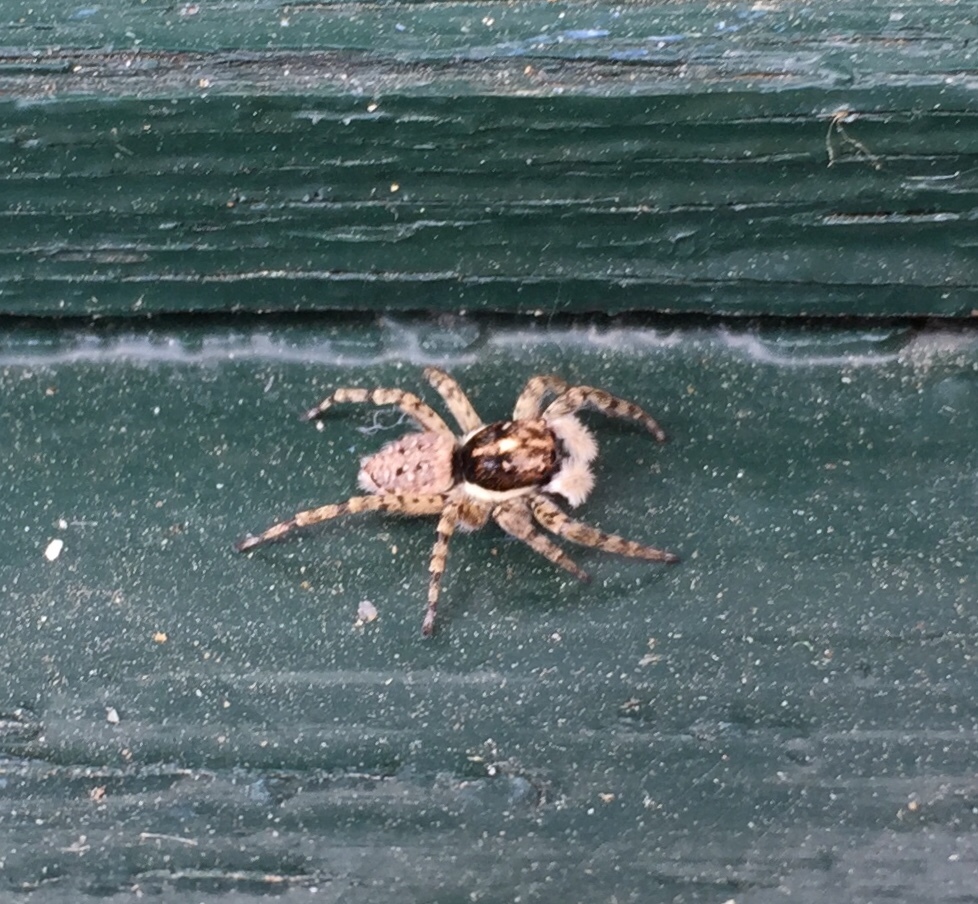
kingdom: Animalia
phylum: Arthropoda
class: Arachnida
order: Araneae
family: Salticidae
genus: Menemerus
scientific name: Menemerus semilimbatus
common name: Jumping spider
